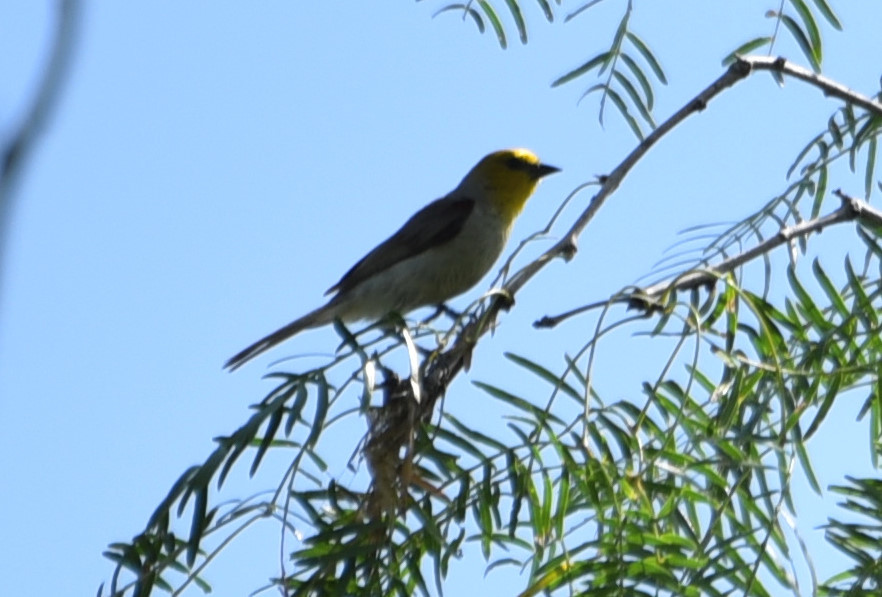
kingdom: Animalia
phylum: Chordata
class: Aves
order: Passeriformes
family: Remizidae
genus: Auriparus
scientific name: Auriparus flaviceps
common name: Verdin
